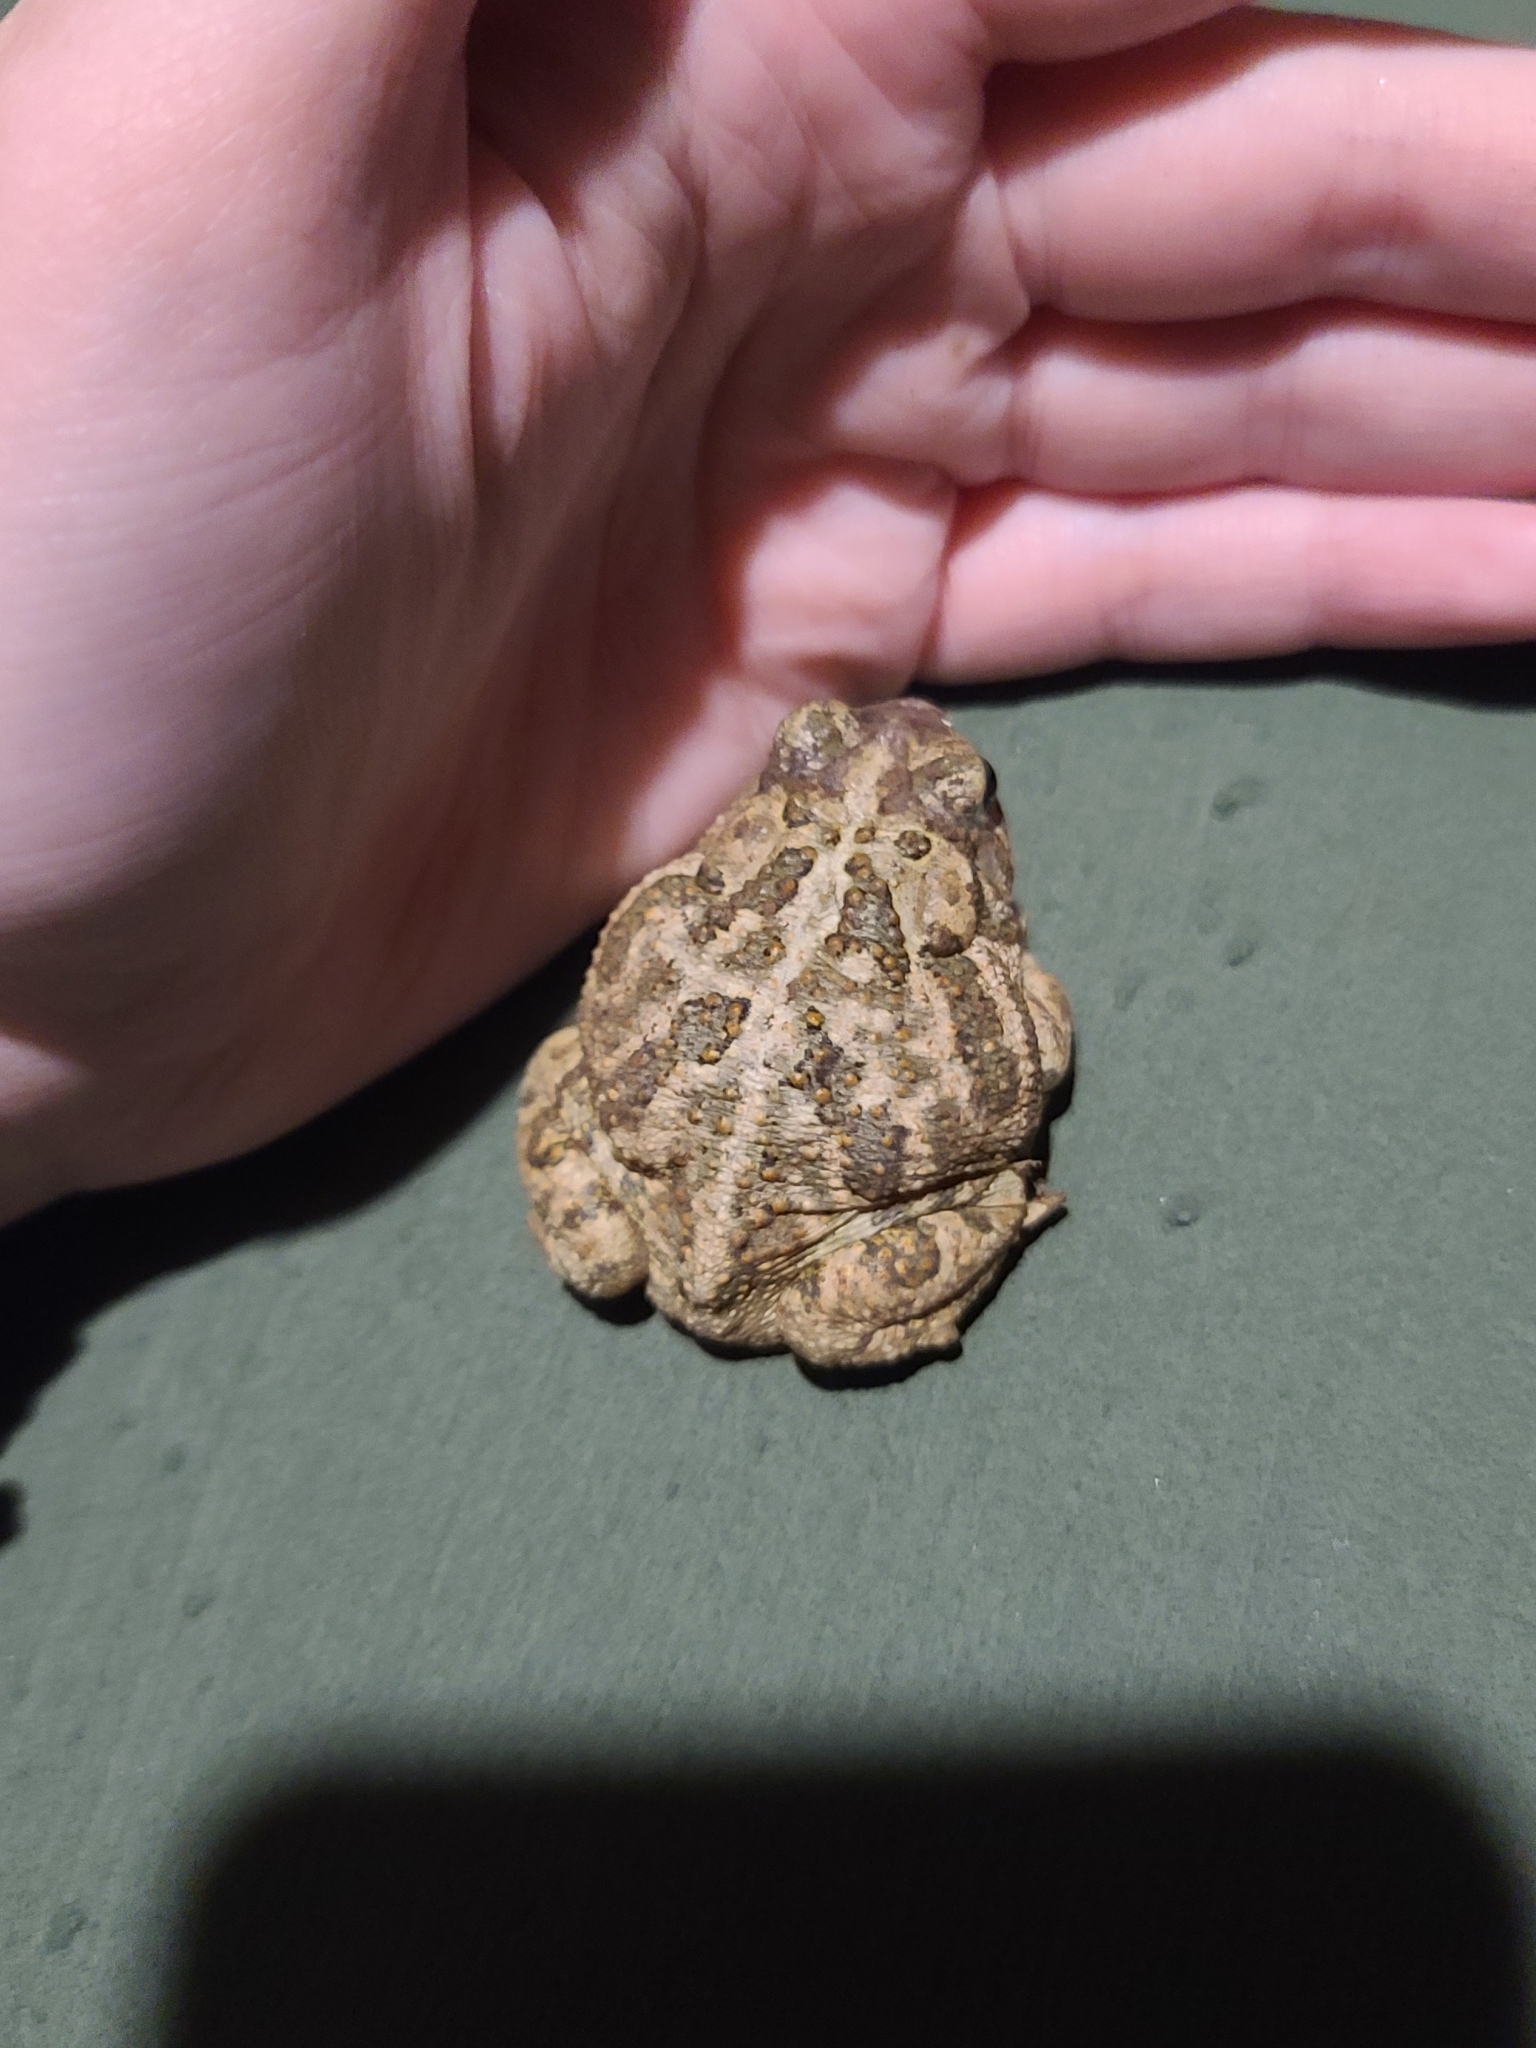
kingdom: Animalia
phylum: Chordata
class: Amphibia
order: Anura
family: Bufonidae
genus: Anaxyrus
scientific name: Anaxyrus cognatus
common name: Great plains toad
